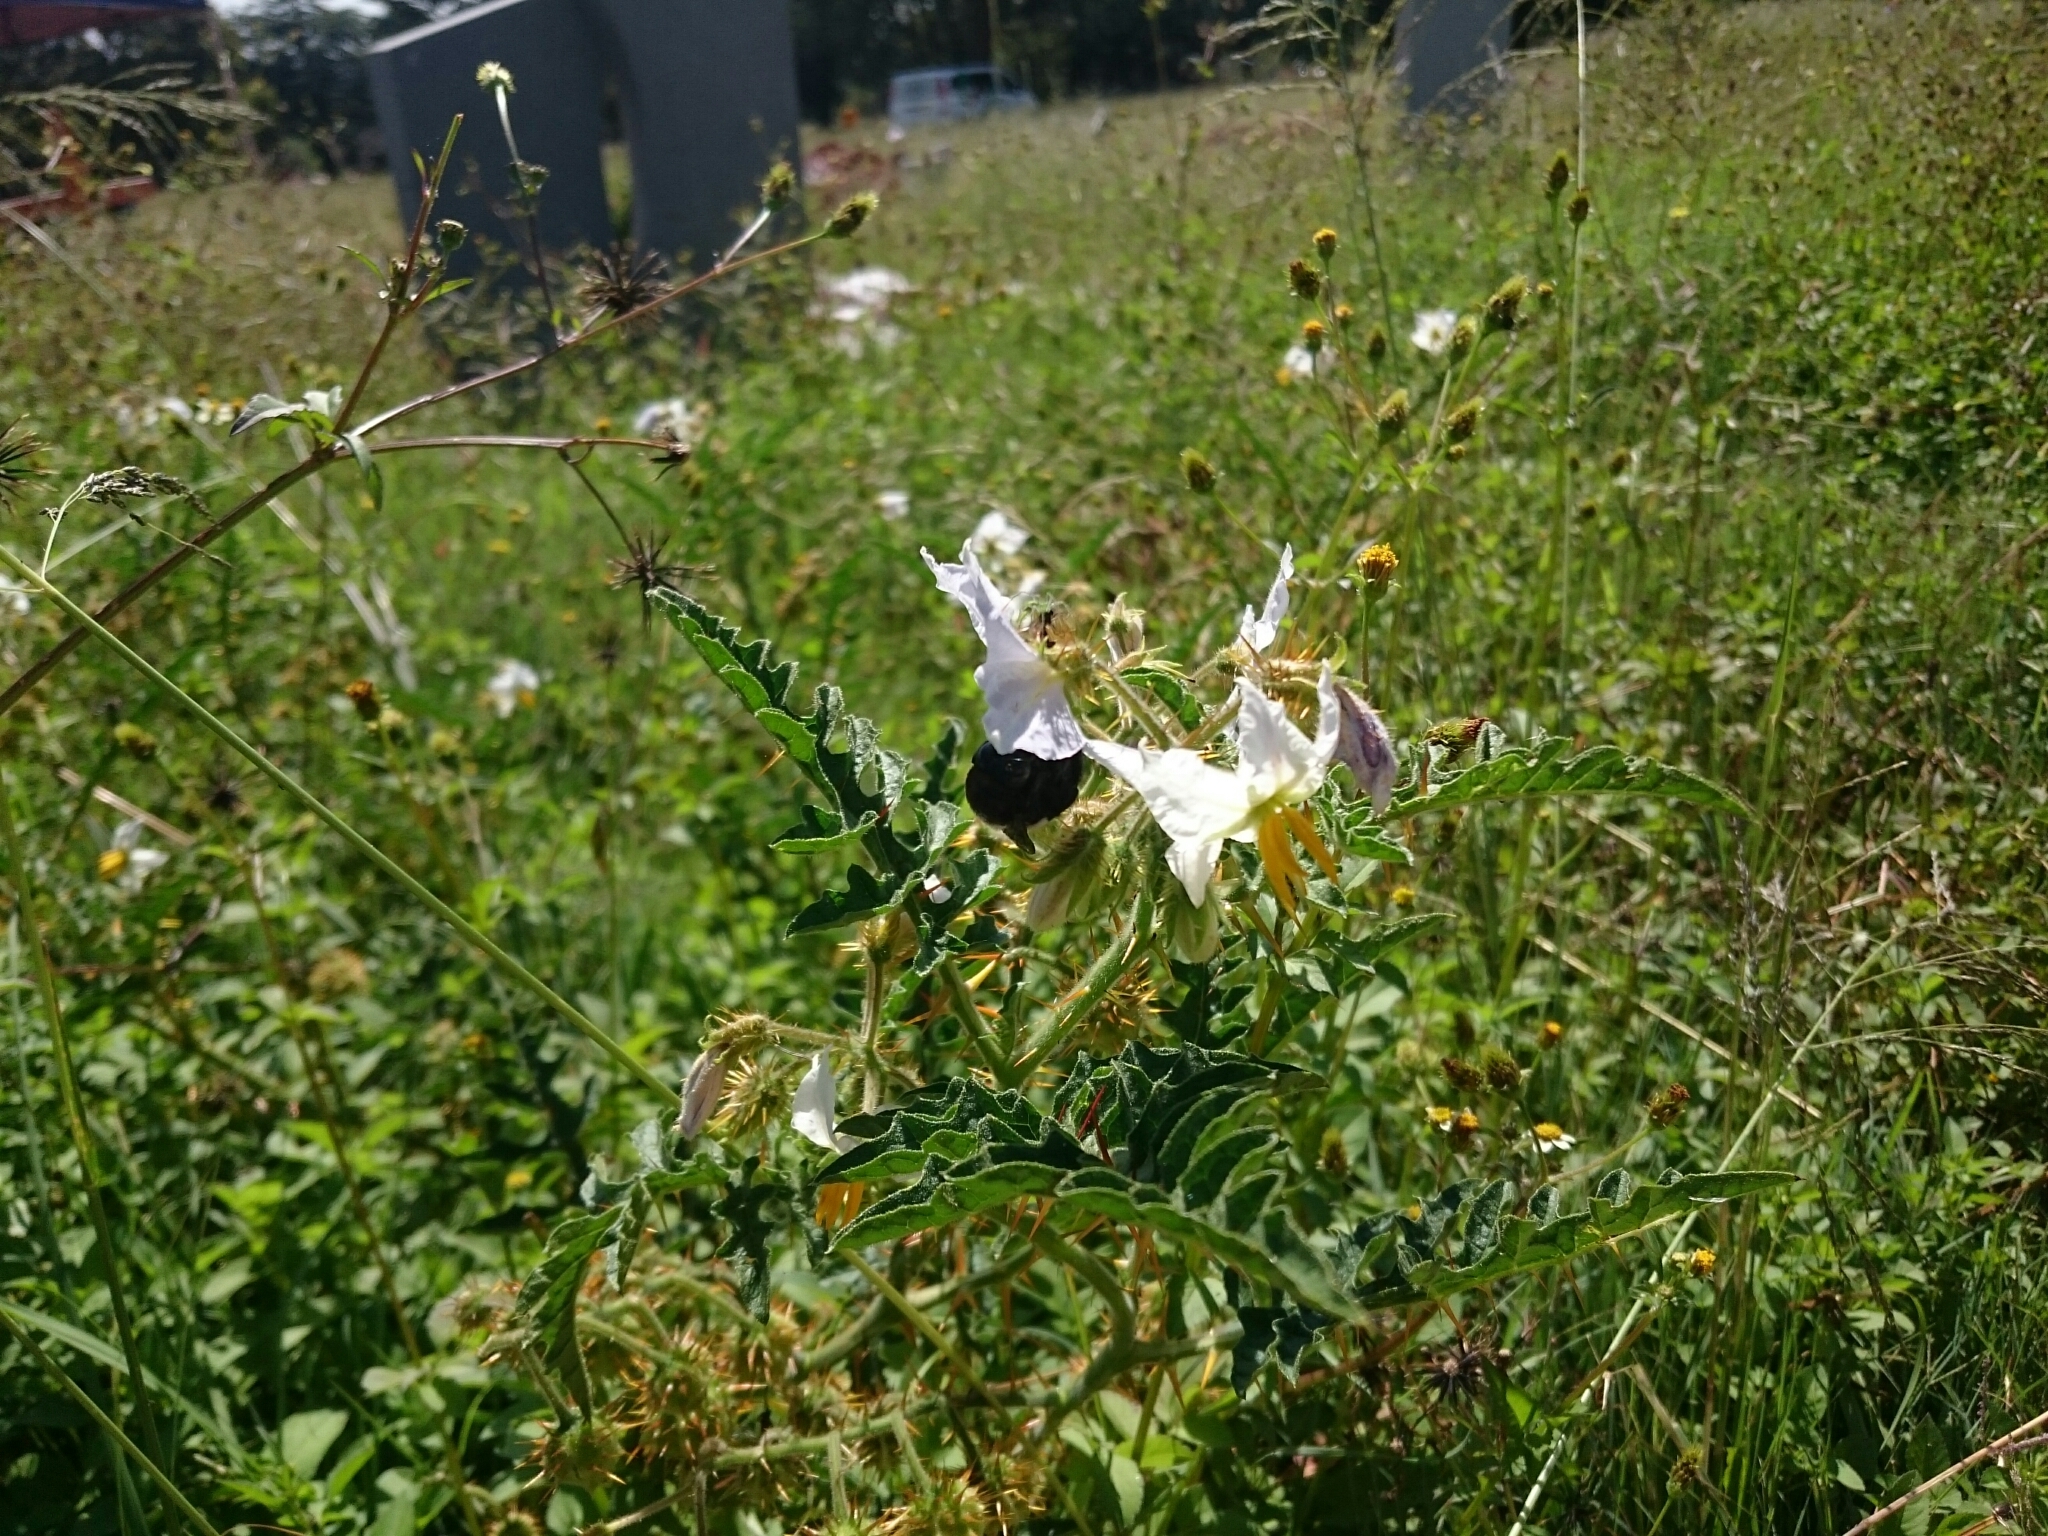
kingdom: Animalia
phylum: Arthropoda
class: Insecta
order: Hymenoptera
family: Apidae
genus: Xylocopa
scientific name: Xylocopa caffra
